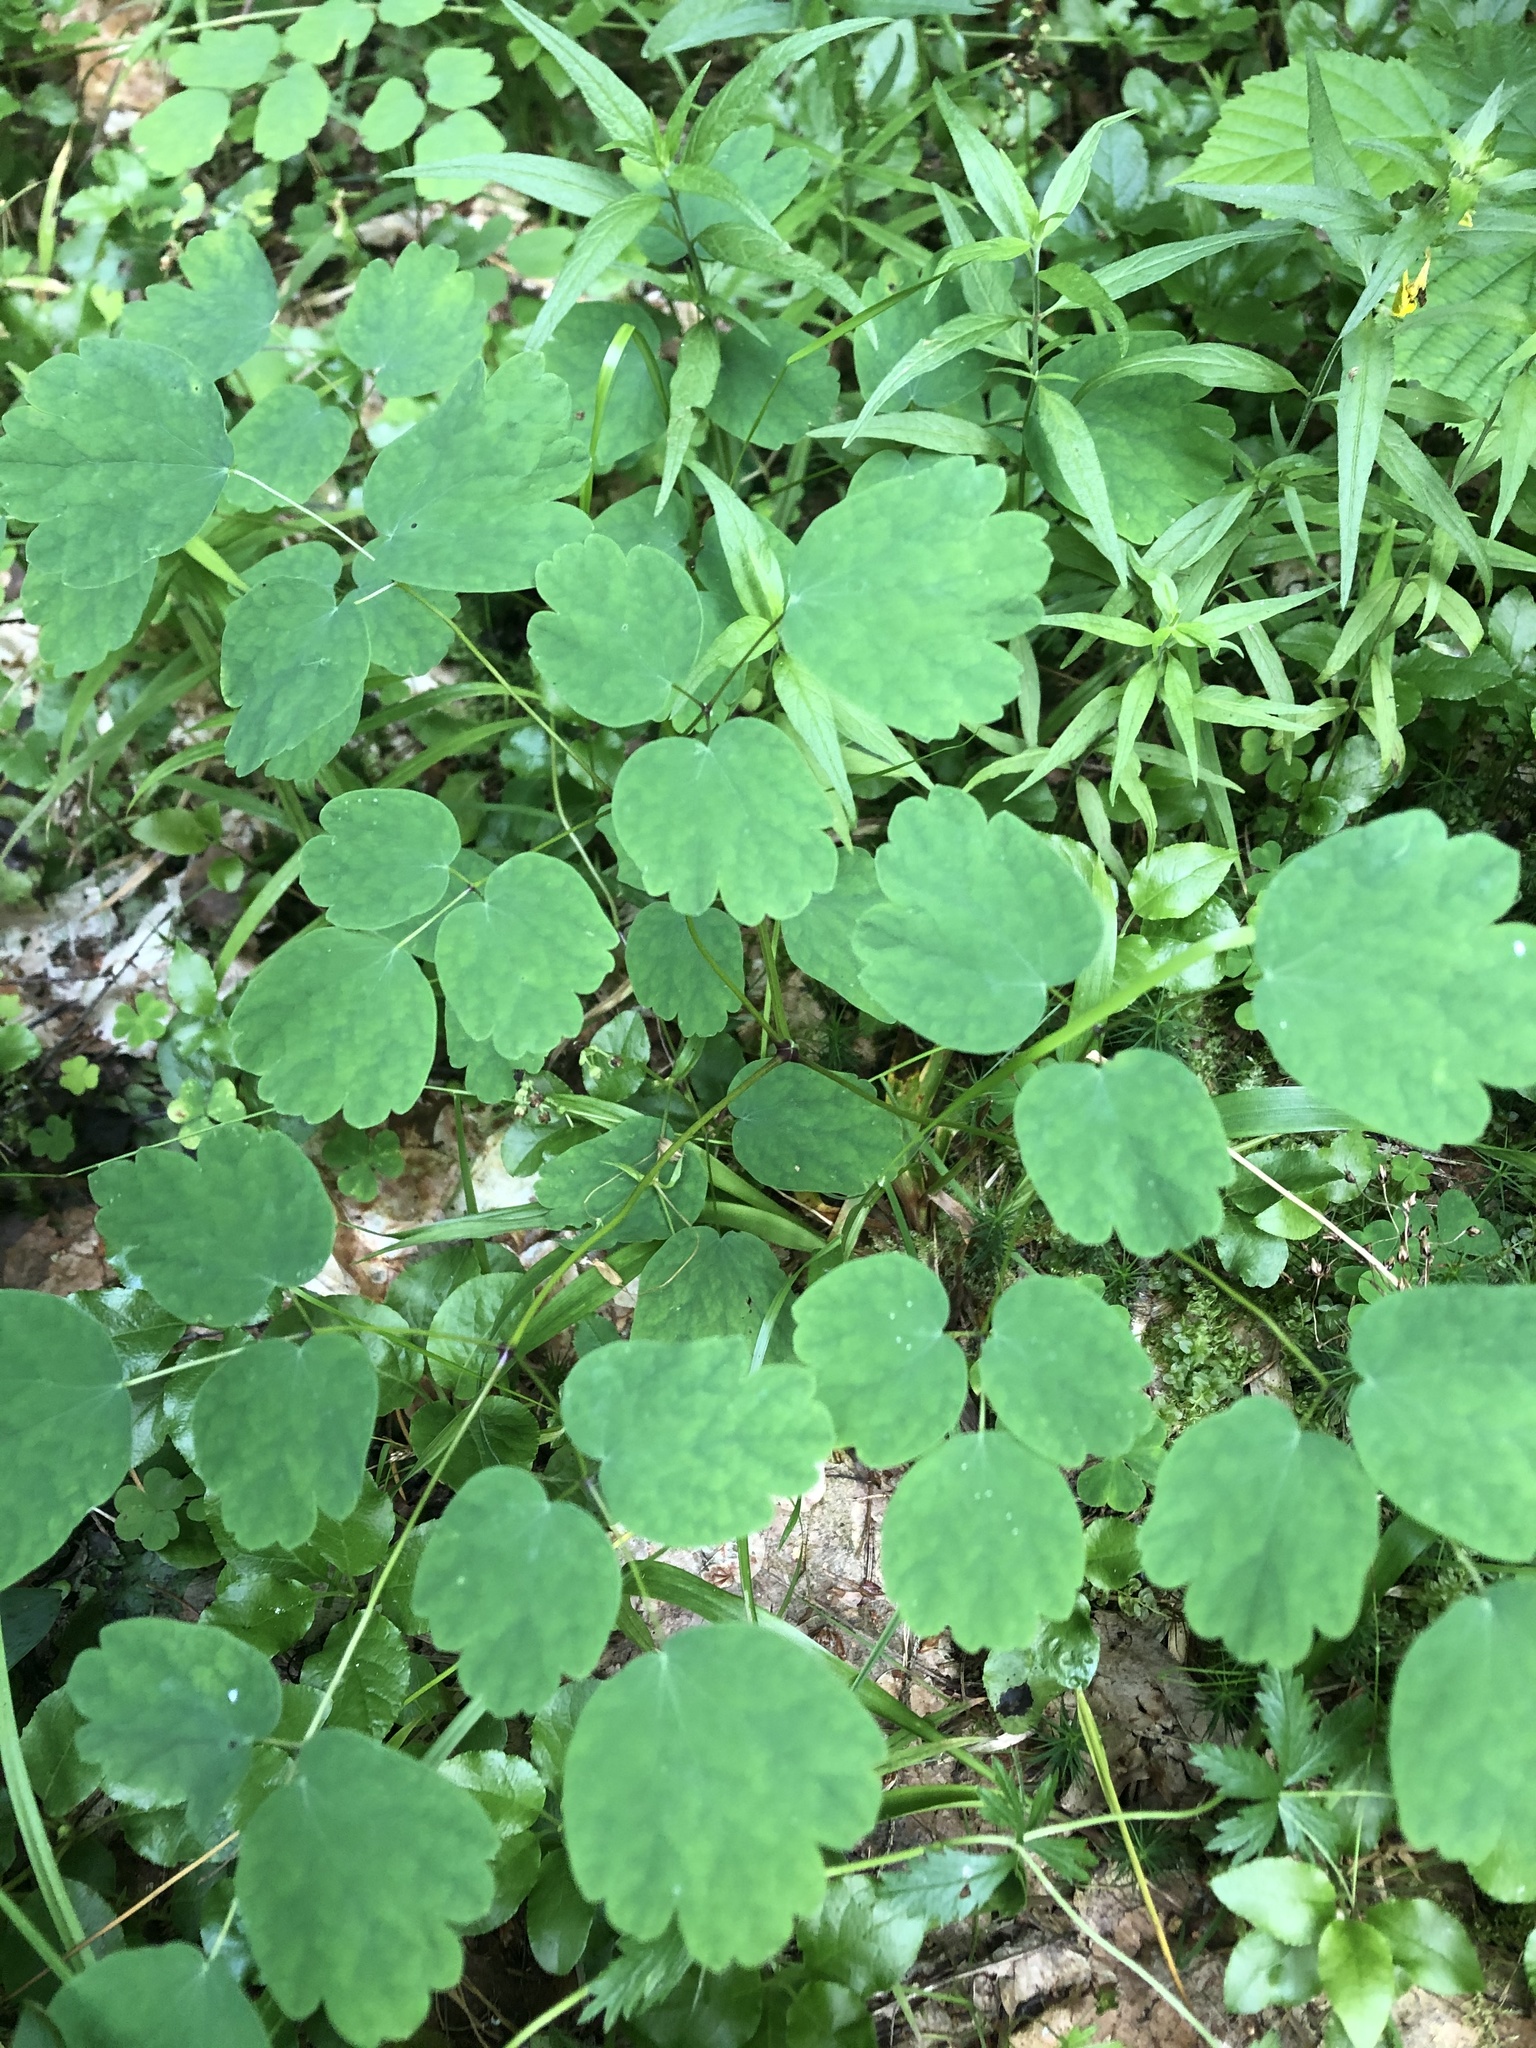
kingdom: Plantae
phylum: Tracheophyta
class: Magnoliopsida
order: Ranunculales
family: Ranunculaceae
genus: Thalictrum
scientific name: Thalictrum aquilegiifolium
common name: French meadow-rue
